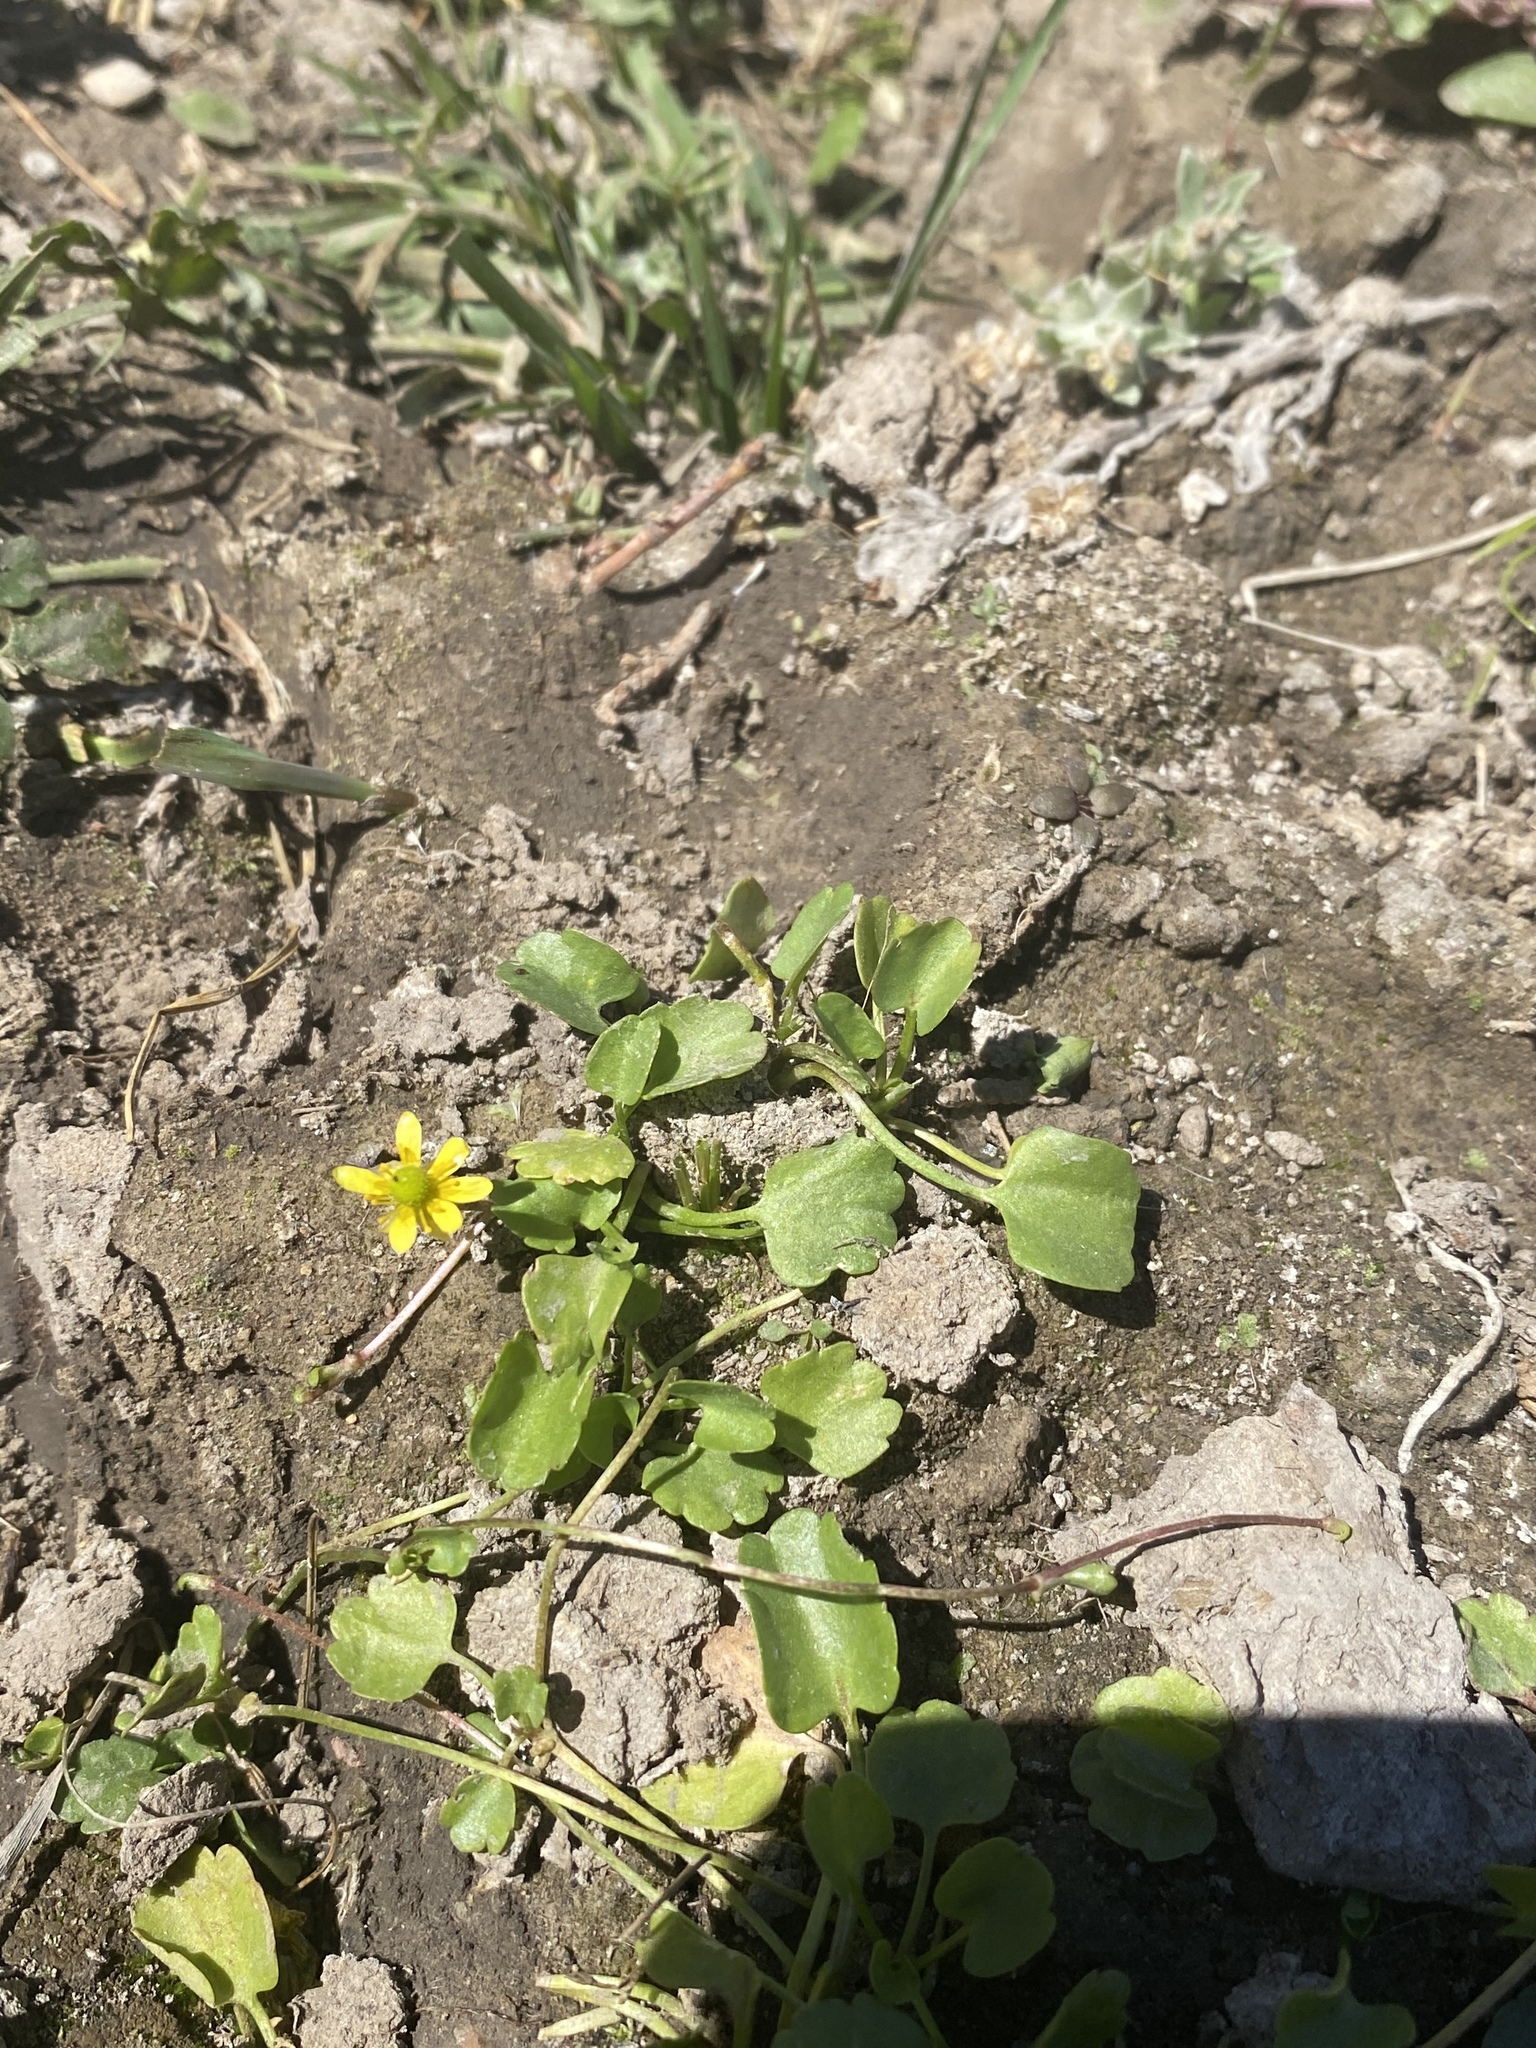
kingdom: Plantae
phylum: Tracheophyta
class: Magnoliopsida
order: Ranunculales
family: Ranunculaceae
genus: Halerpestes
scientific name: Halerpestes cymbalaria
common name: Seaside crowfoot
